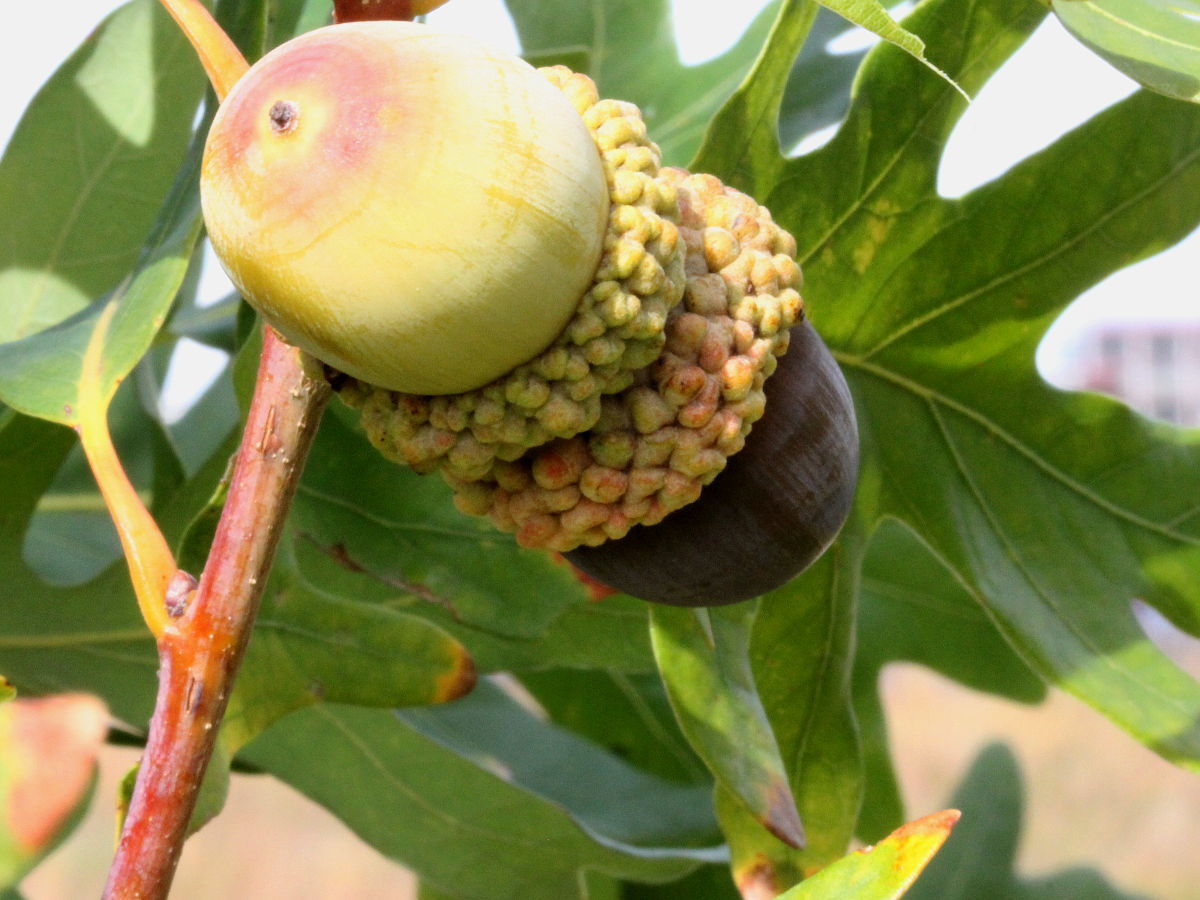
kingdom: Plantae
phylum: Tracheophyta
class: Magnoliopsida
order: Fagales
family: Fagaceae
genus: Quercus
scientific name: Quercus alba
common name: White oak
